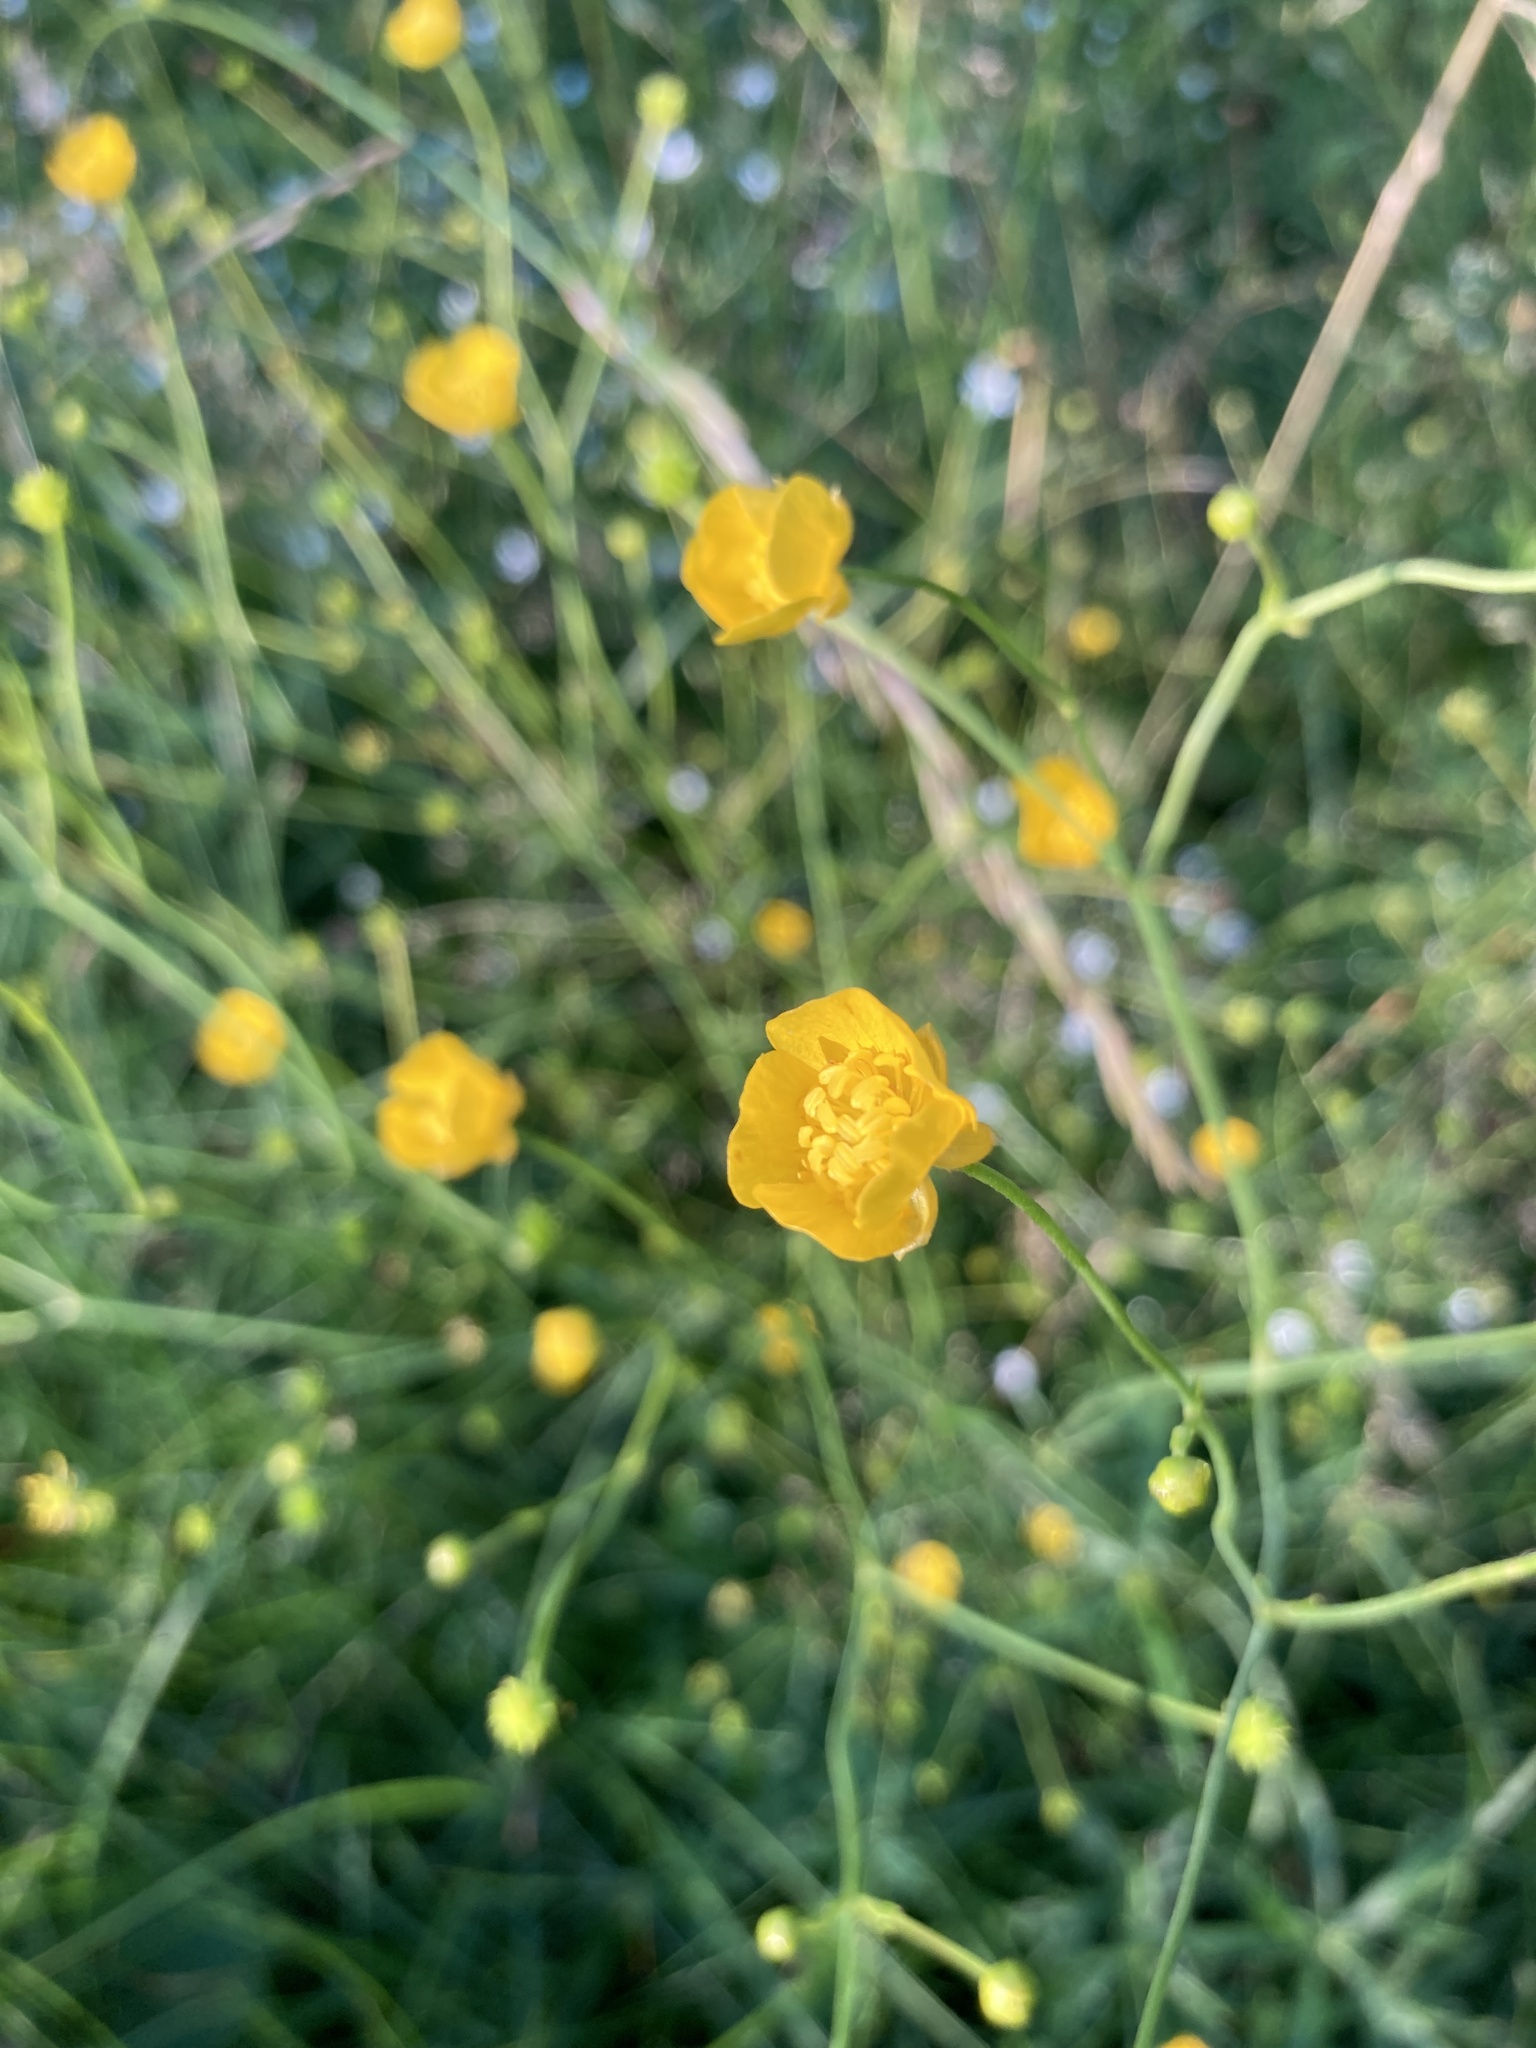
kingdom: Plantae
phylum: Tracheophyta
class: Magnoliopsida
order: Ranunculales
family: Ranunculaceae
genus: Ranunculus
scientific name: Ranunculus acris
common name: Meadow buttercup
